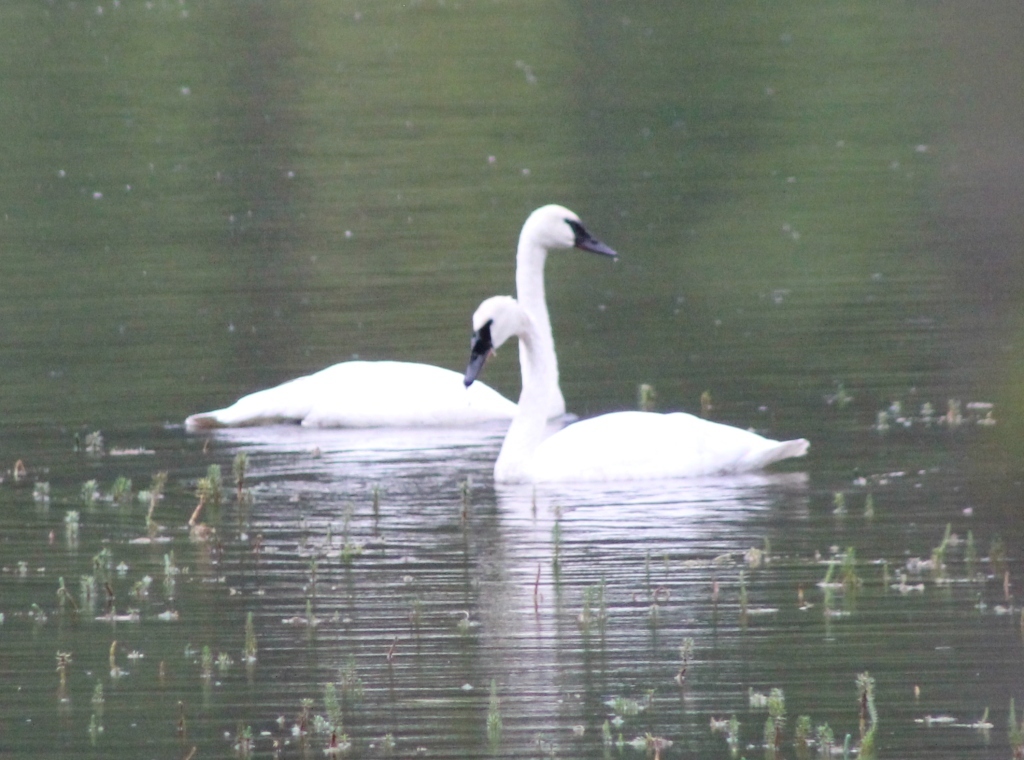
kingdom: Animalia
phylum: Chordata
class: Aves
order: Anseriformes
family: Anatidae
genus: Cygnus
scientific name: Cygnus buccinator
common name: Trumpeter swan
